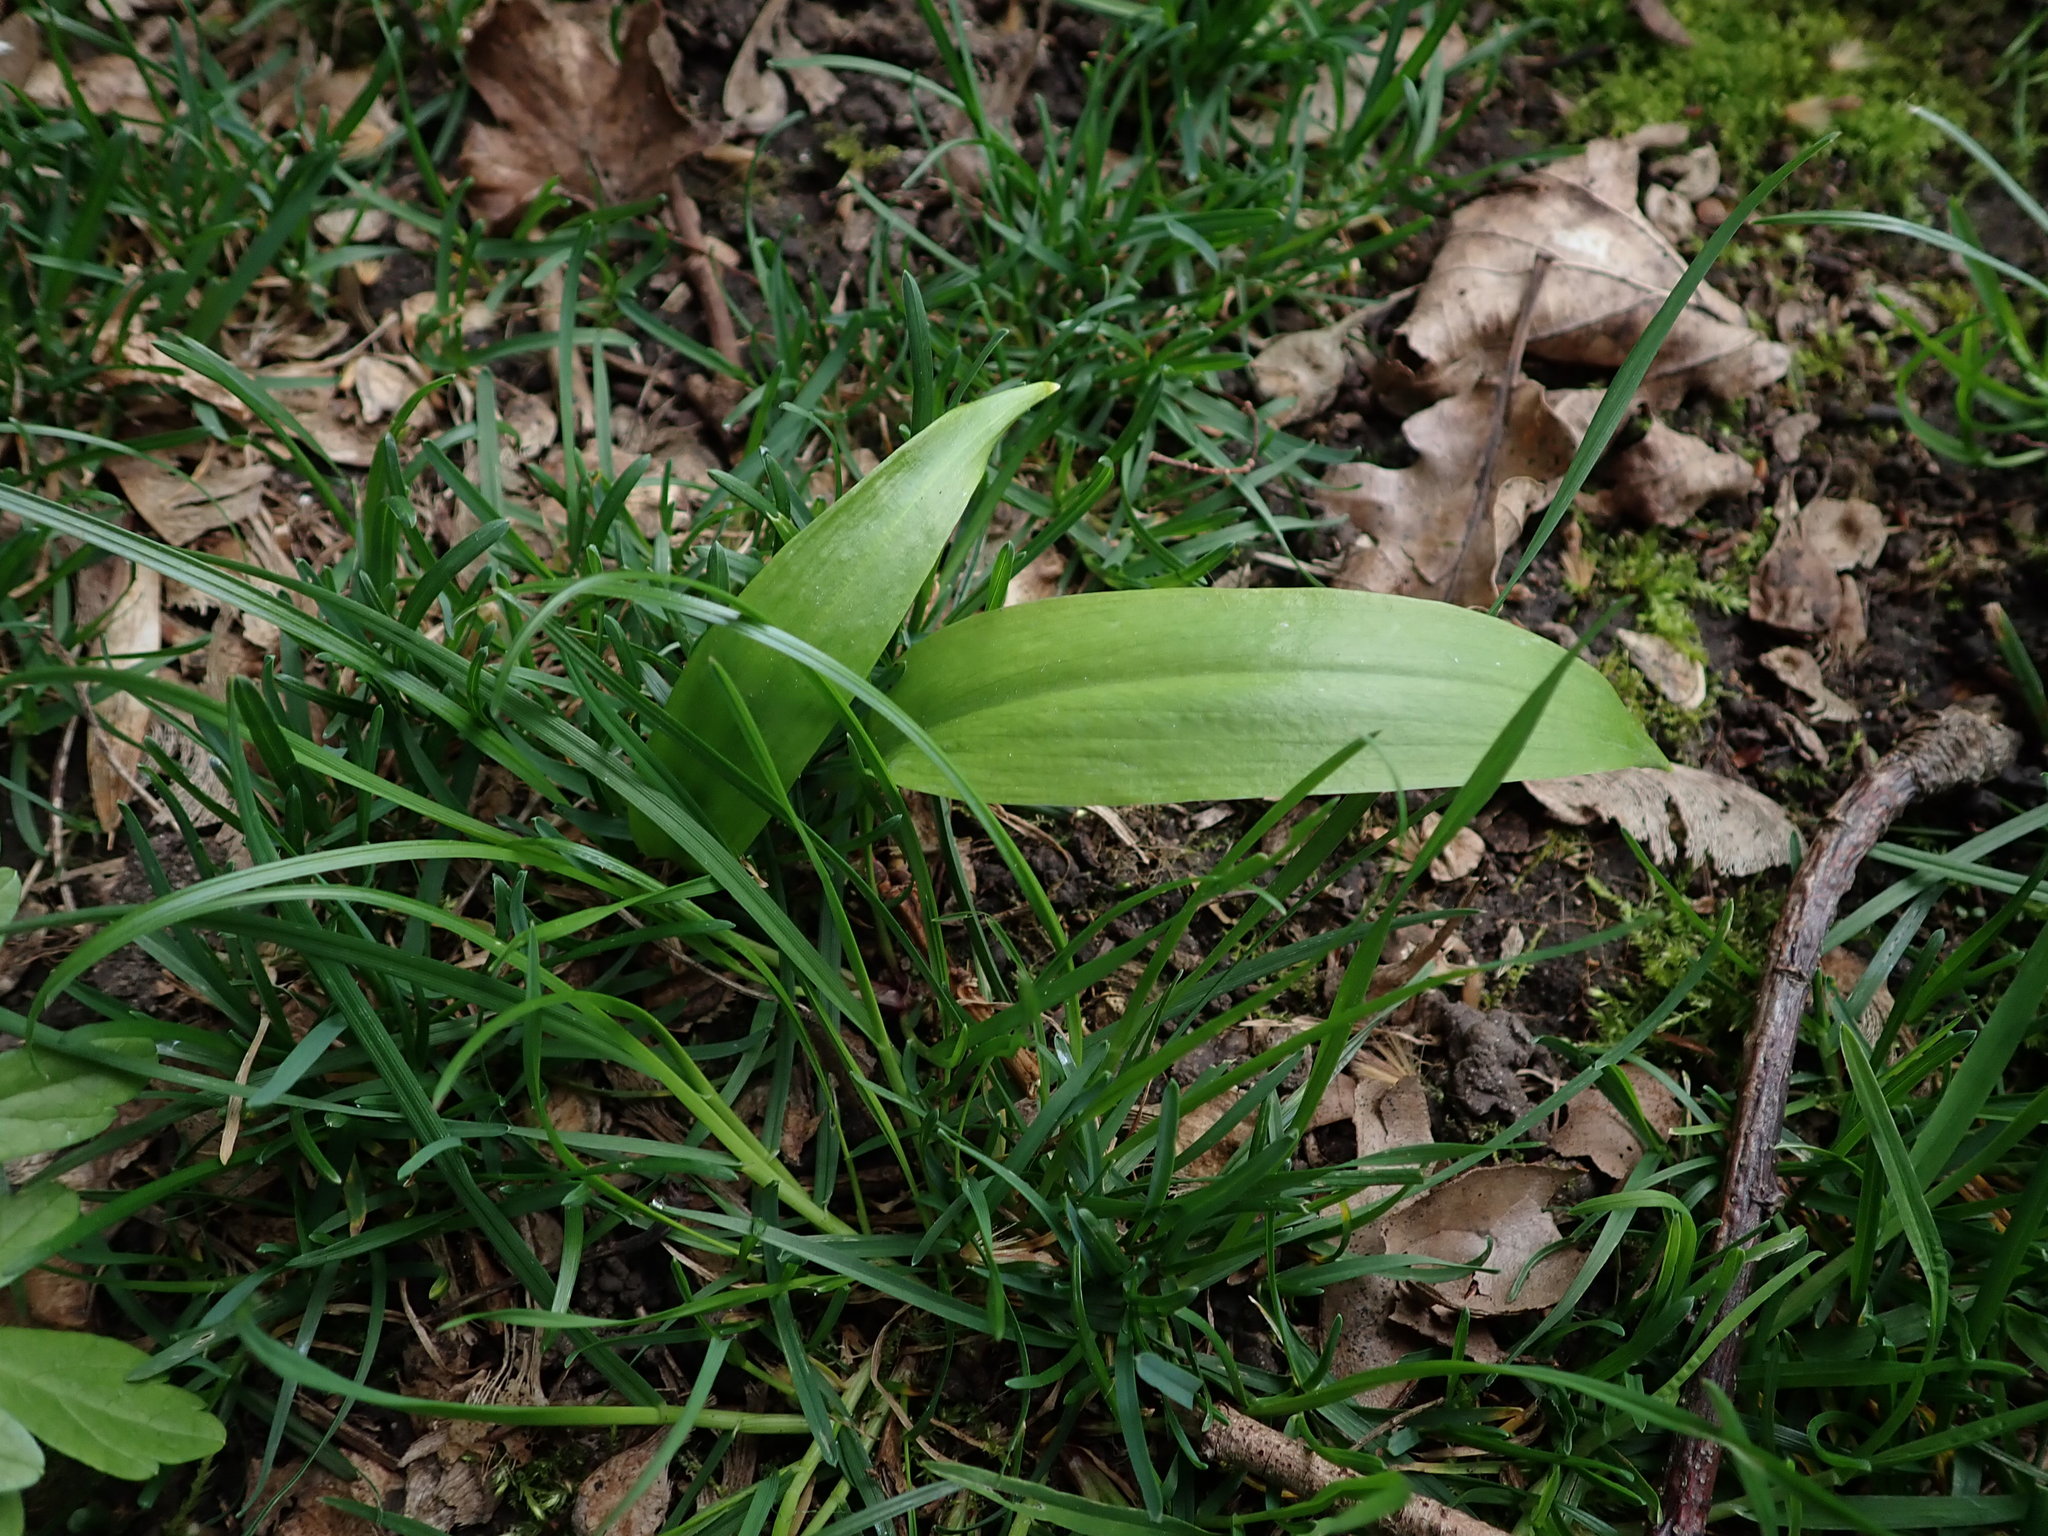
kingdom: Plantae
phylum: Tracheophyta
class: Liliopsida
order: Asparagales
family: Amaryllidaceae
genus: Allium
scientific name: Allium ursinum
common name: Ramsons
